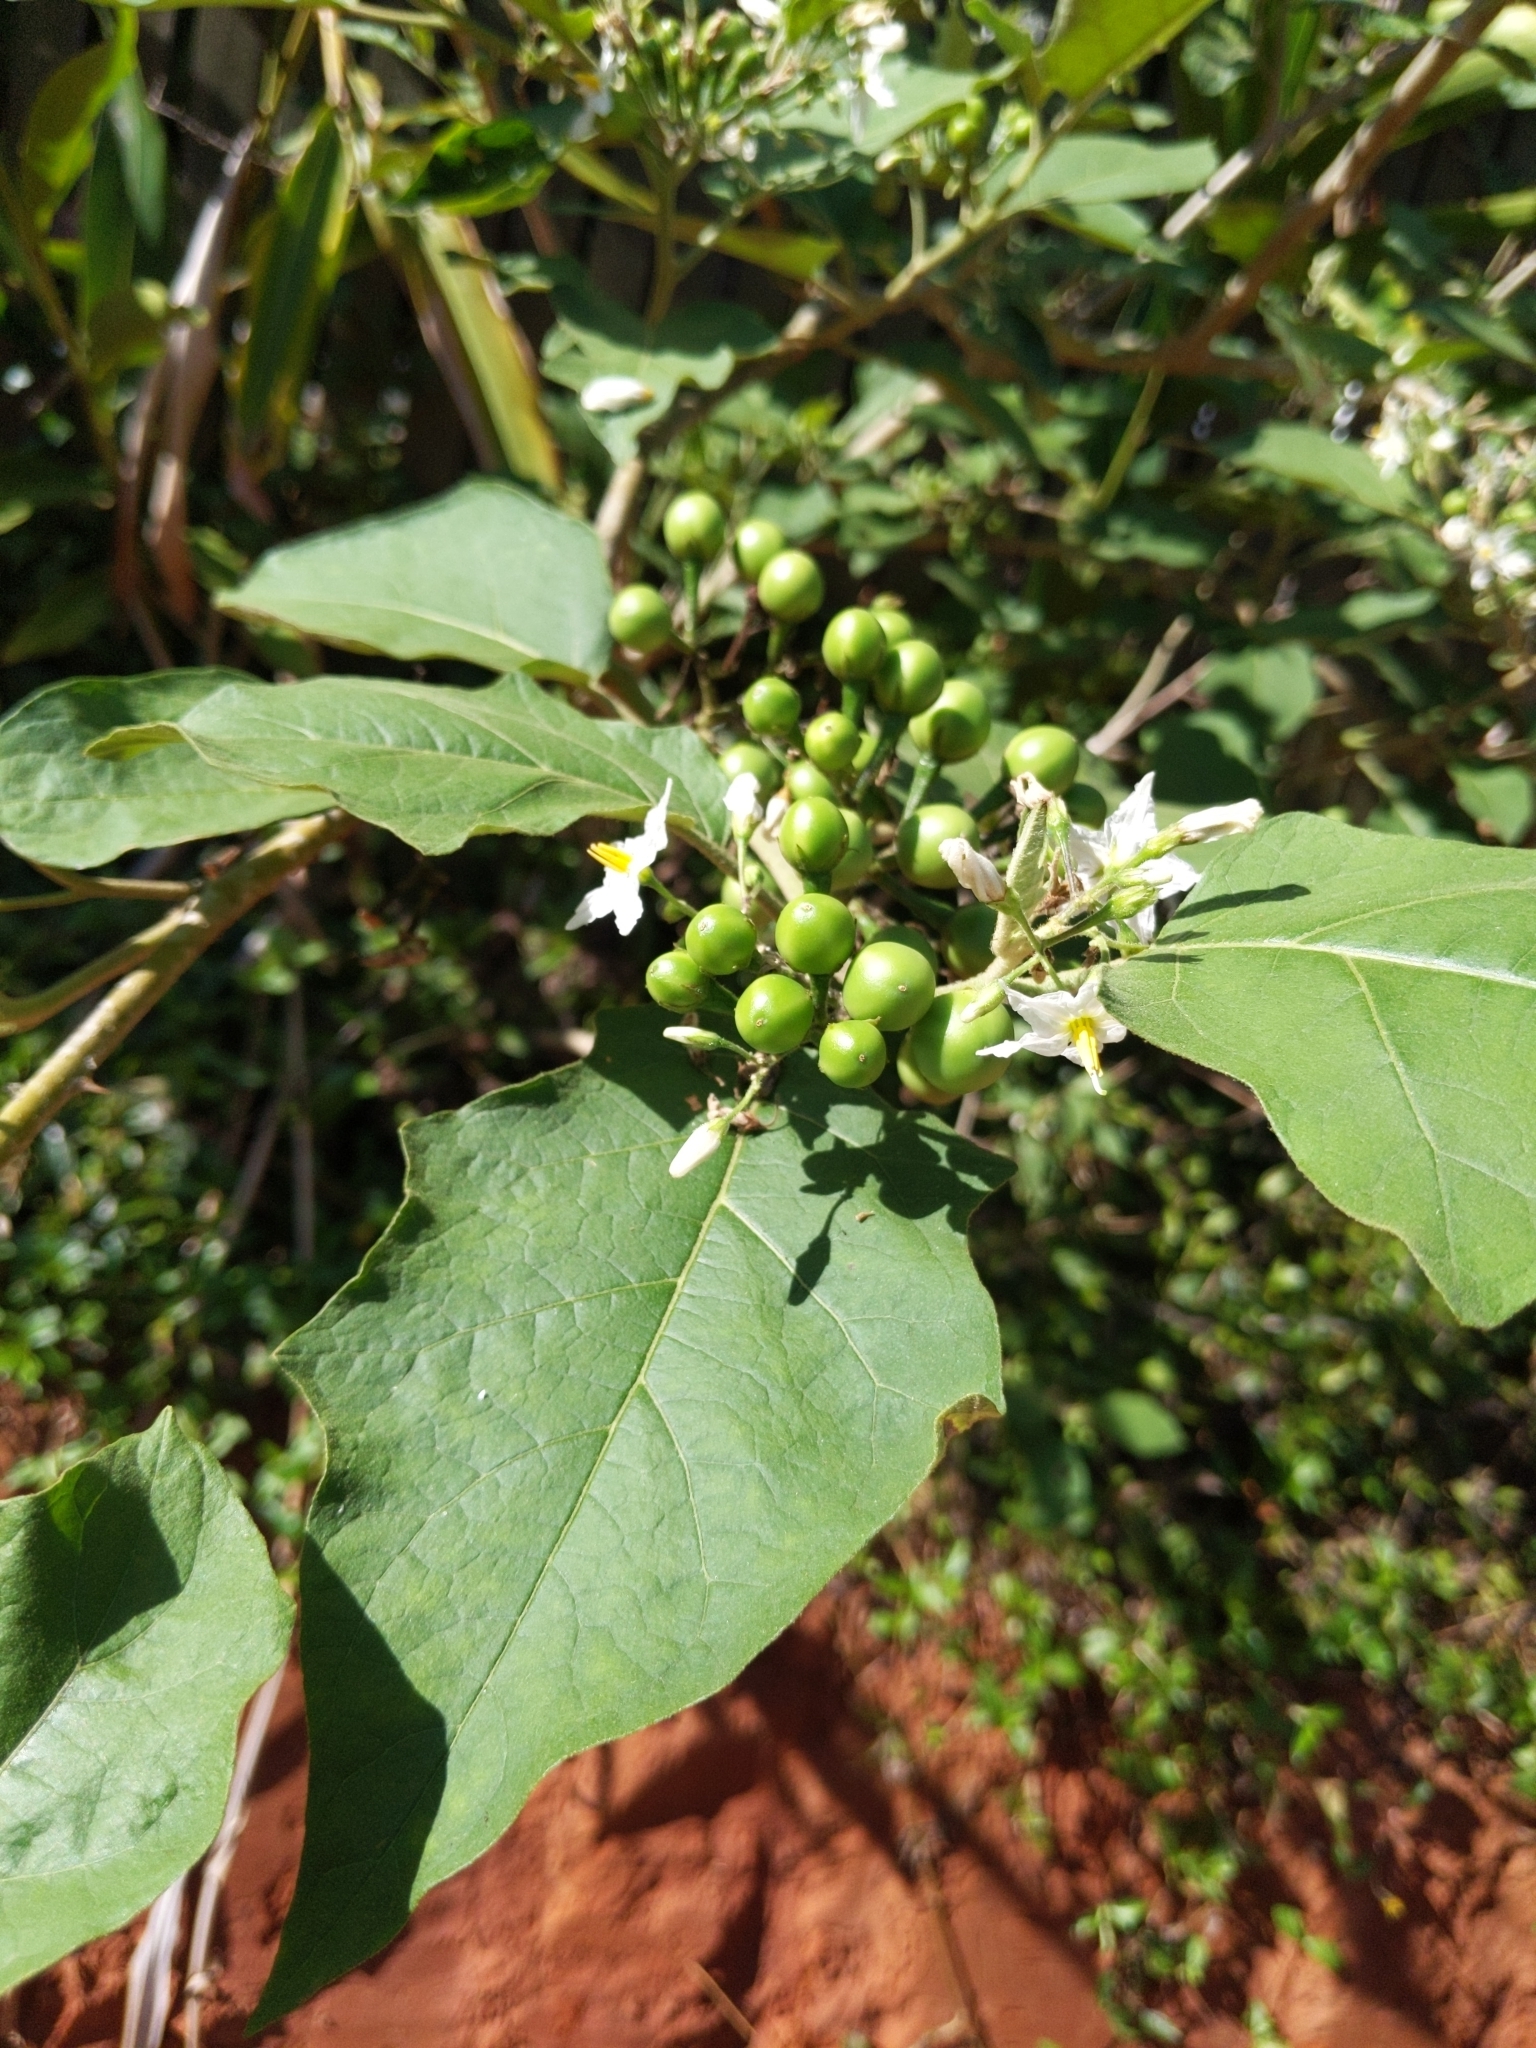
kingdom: Plantae
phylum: Tracheophyta
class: Magnoliopsida
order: Solanales
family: Solanaceae
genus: Solanum
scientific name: Solanum torvum
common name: Turkey berry
